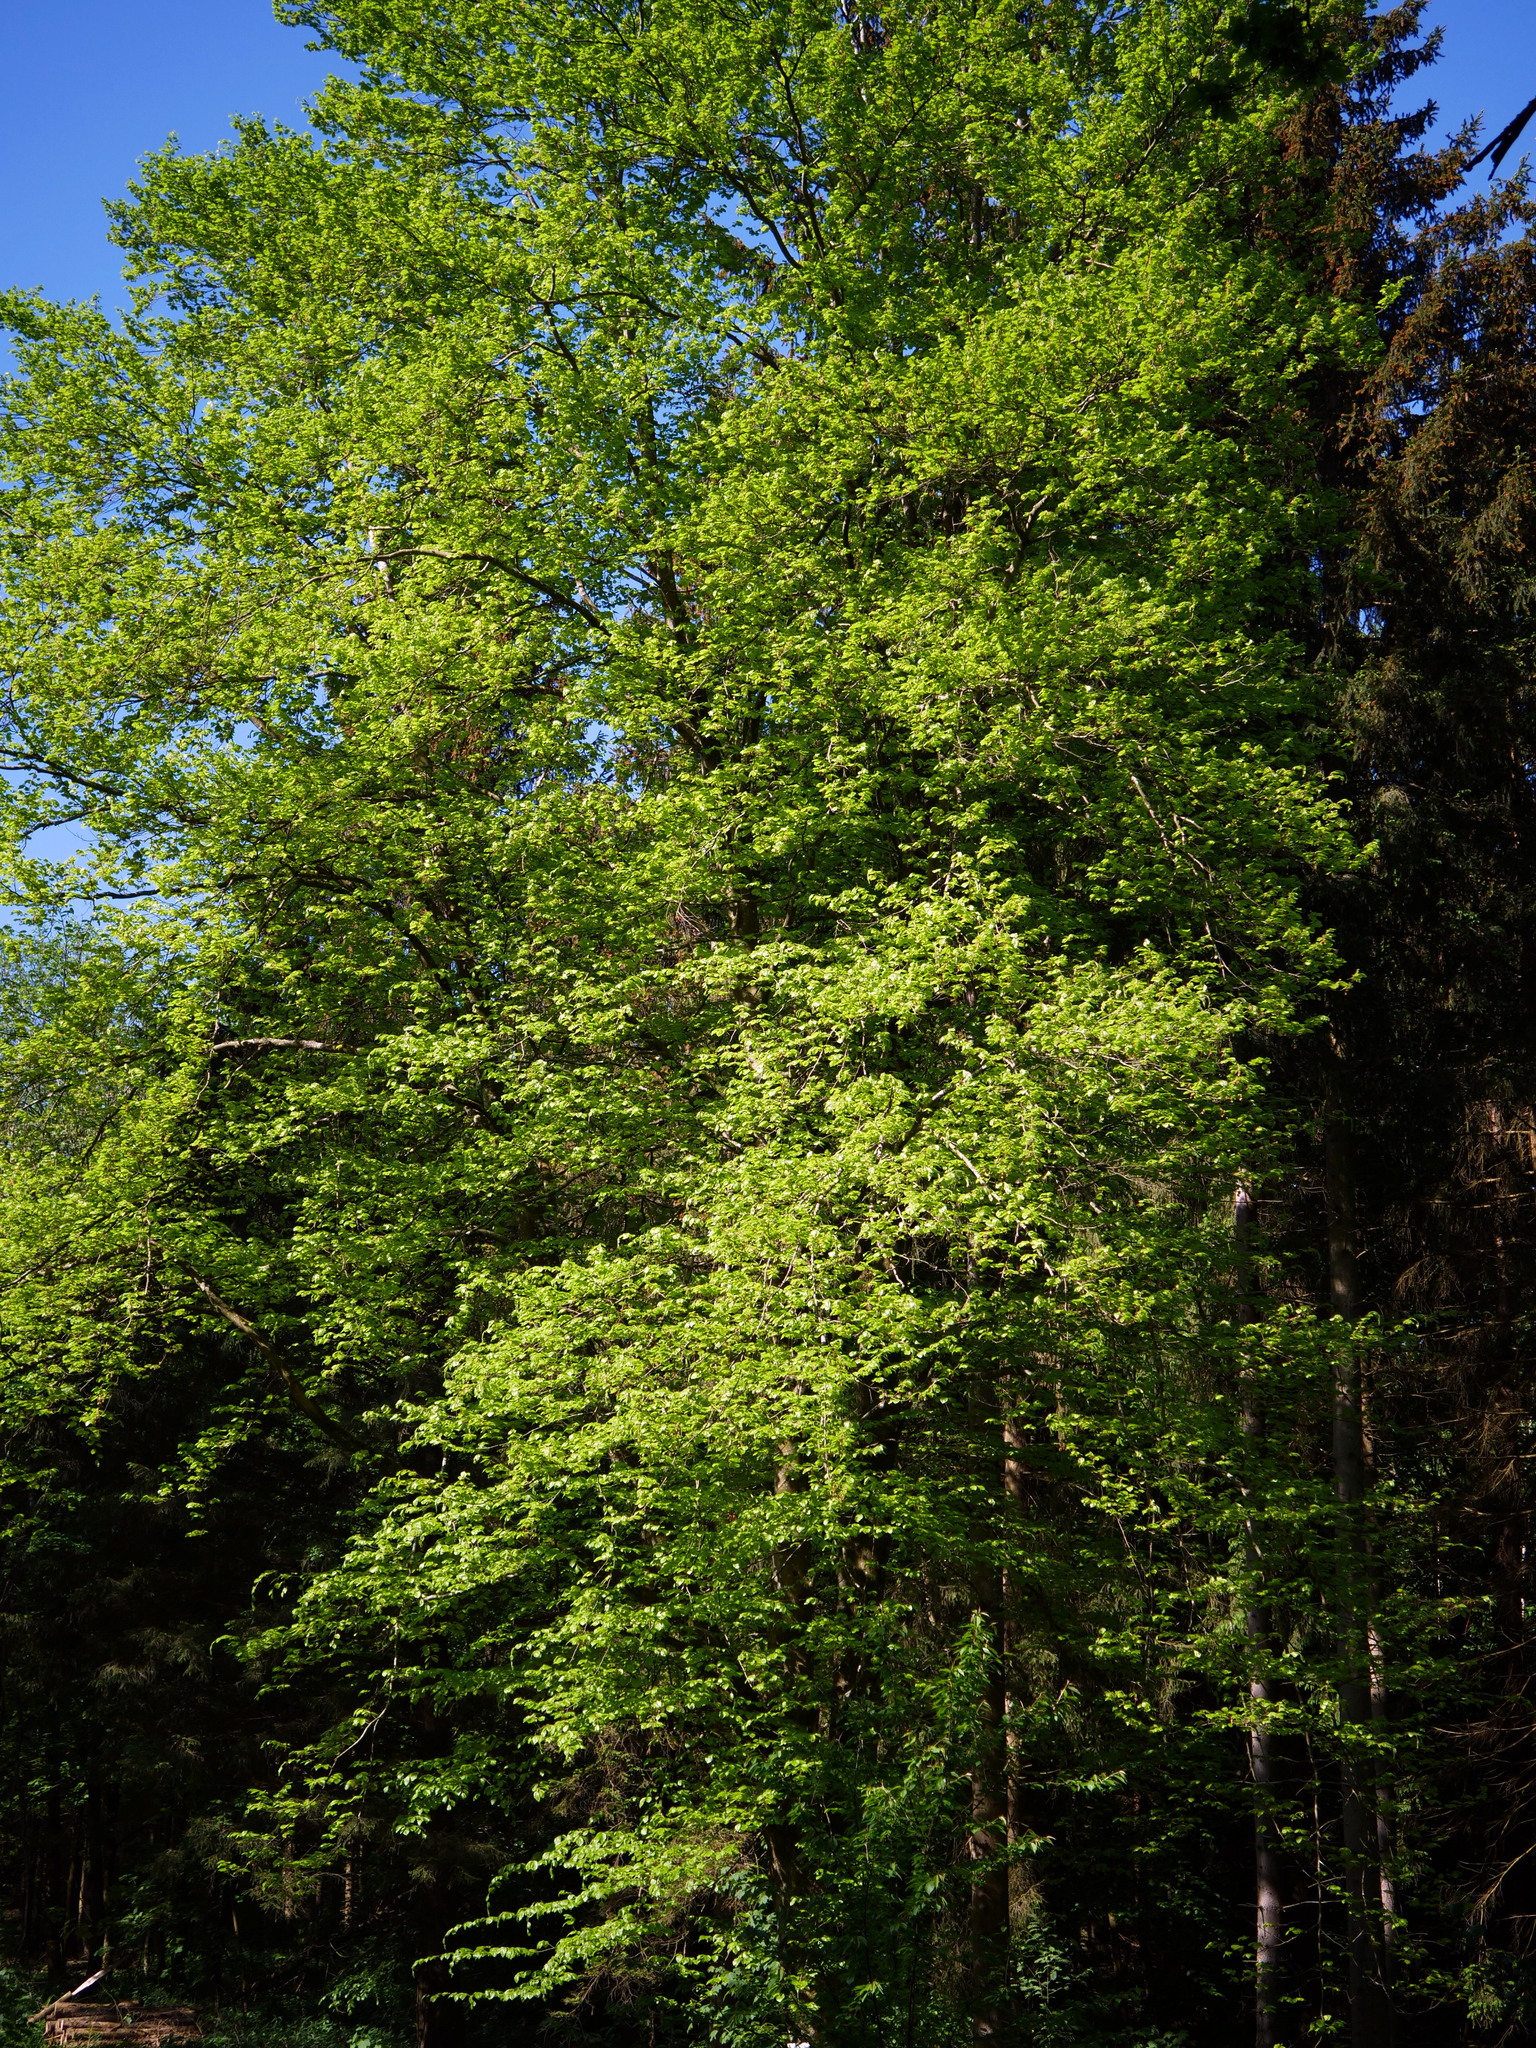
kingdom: Plantae
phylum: Tracheophyta
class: Magnoliopsida
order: Fagales
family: Fagaceae
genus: Fagus
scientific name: Fagus sylvatica
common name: Beech
